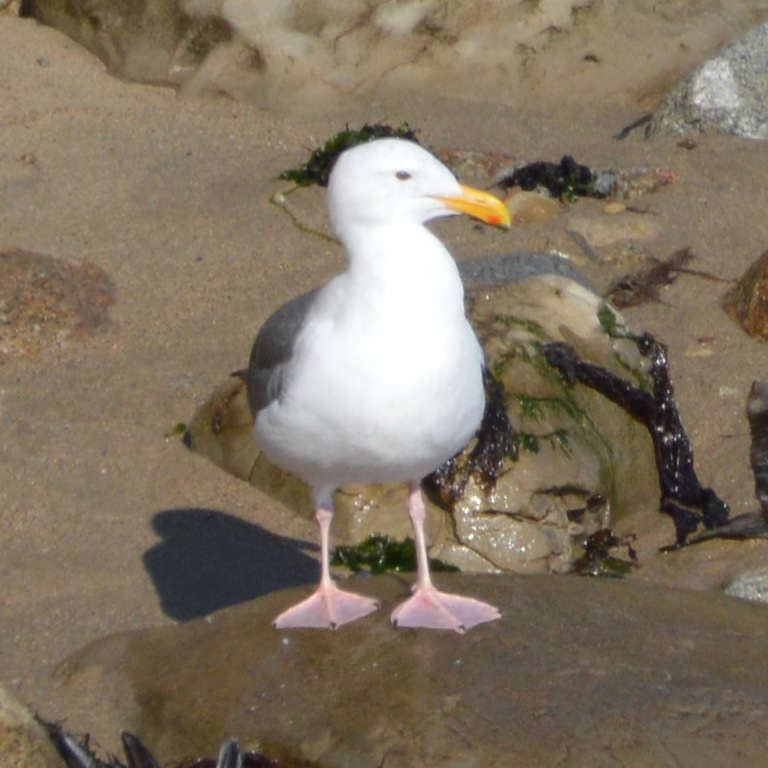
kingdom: Animalia
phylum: Chordata
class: Aves
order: Charadriiformes
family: Laridae
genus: Larus
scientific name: Larus occidentalis
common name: Western gull
